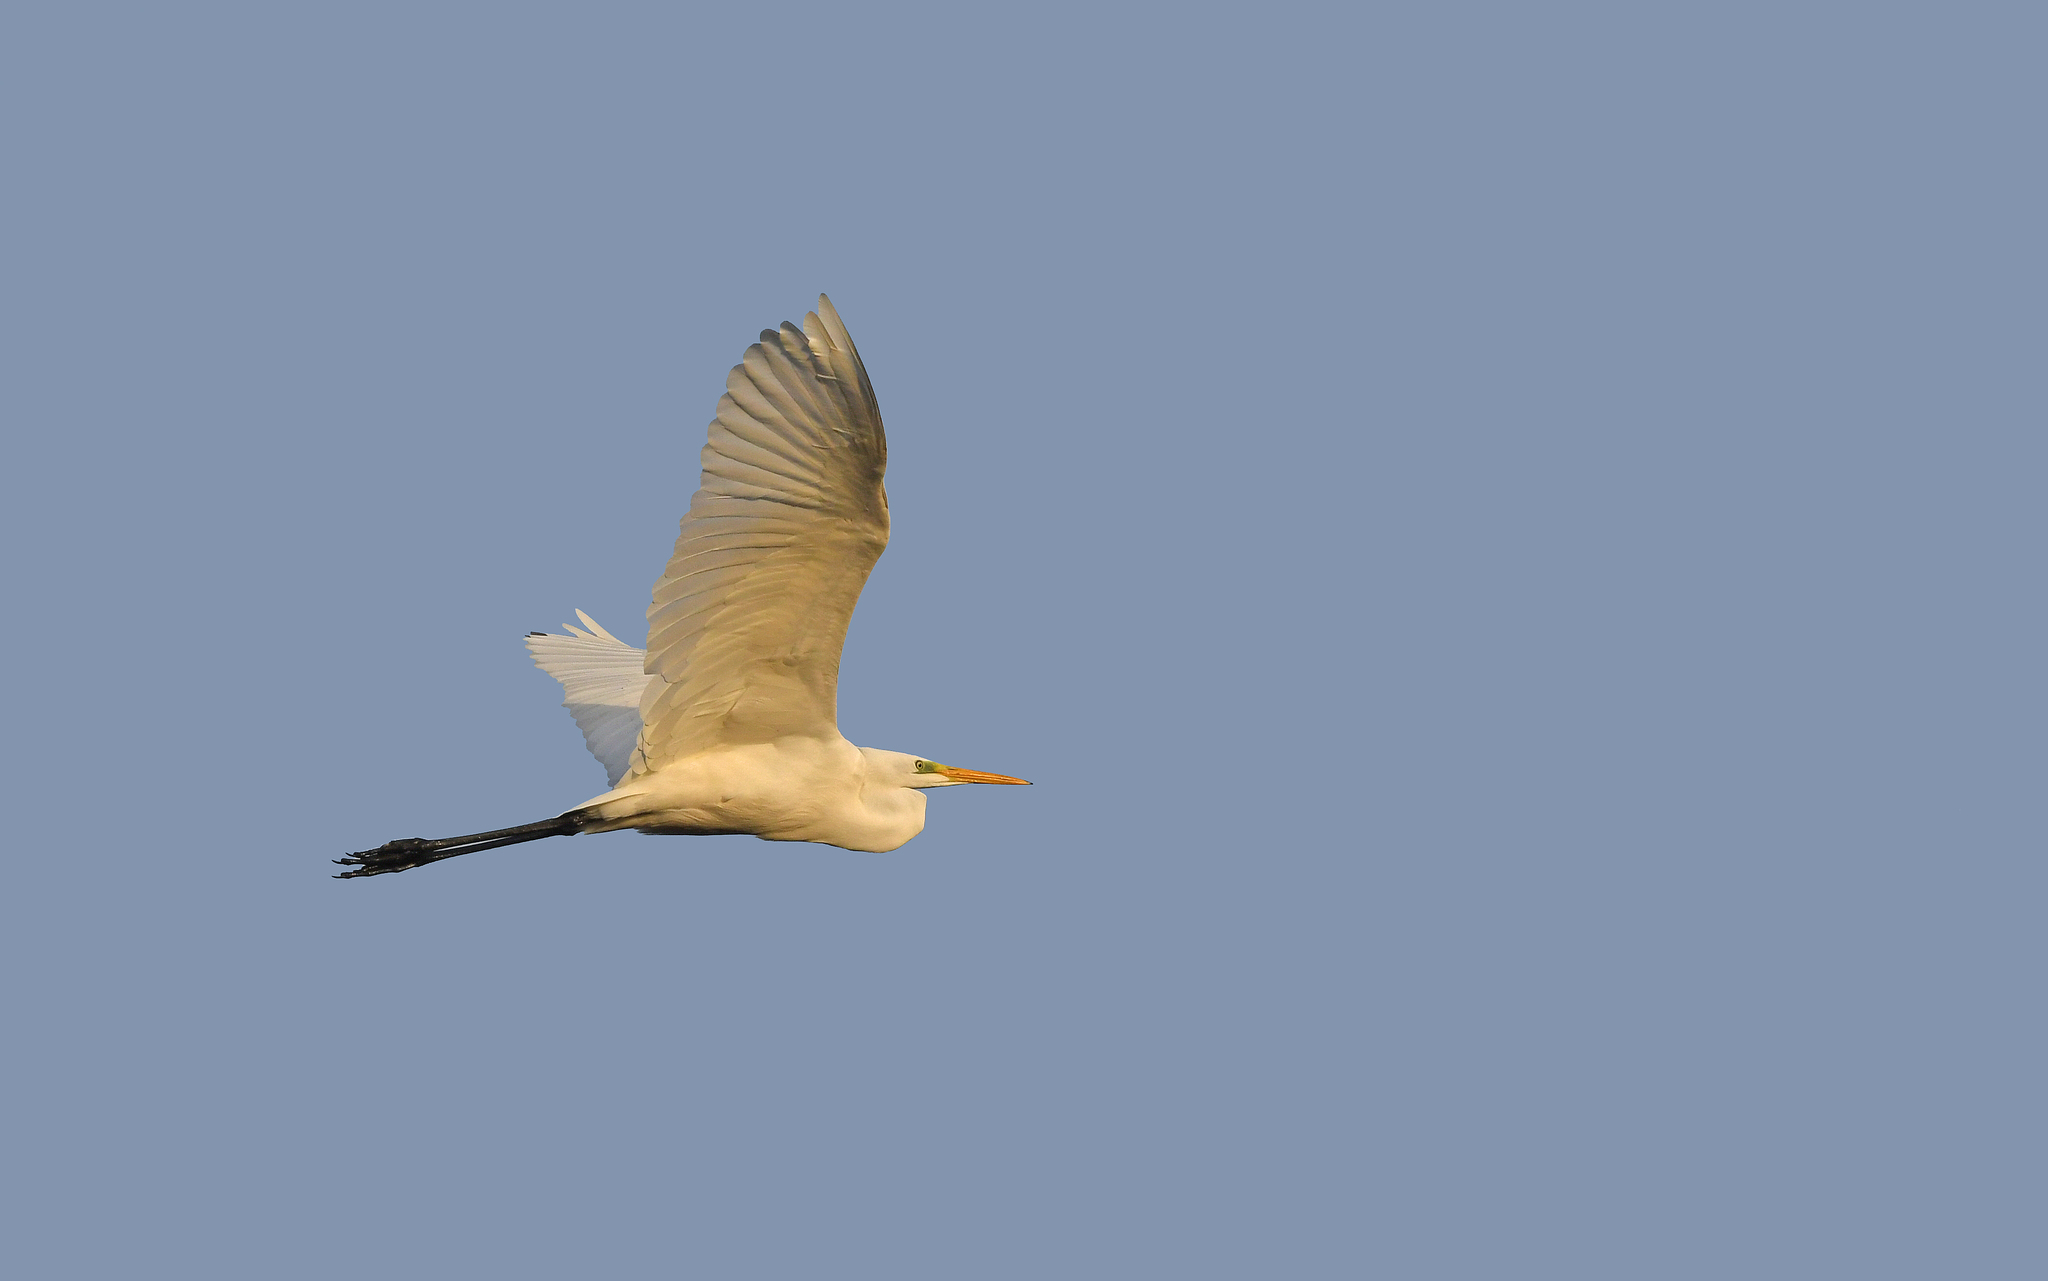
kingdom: Animalia
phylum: Chordata
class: Aves
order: Pelecaniformes
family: Ardeidae
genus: Ardea
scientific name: Ardea alba
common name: Great egret
